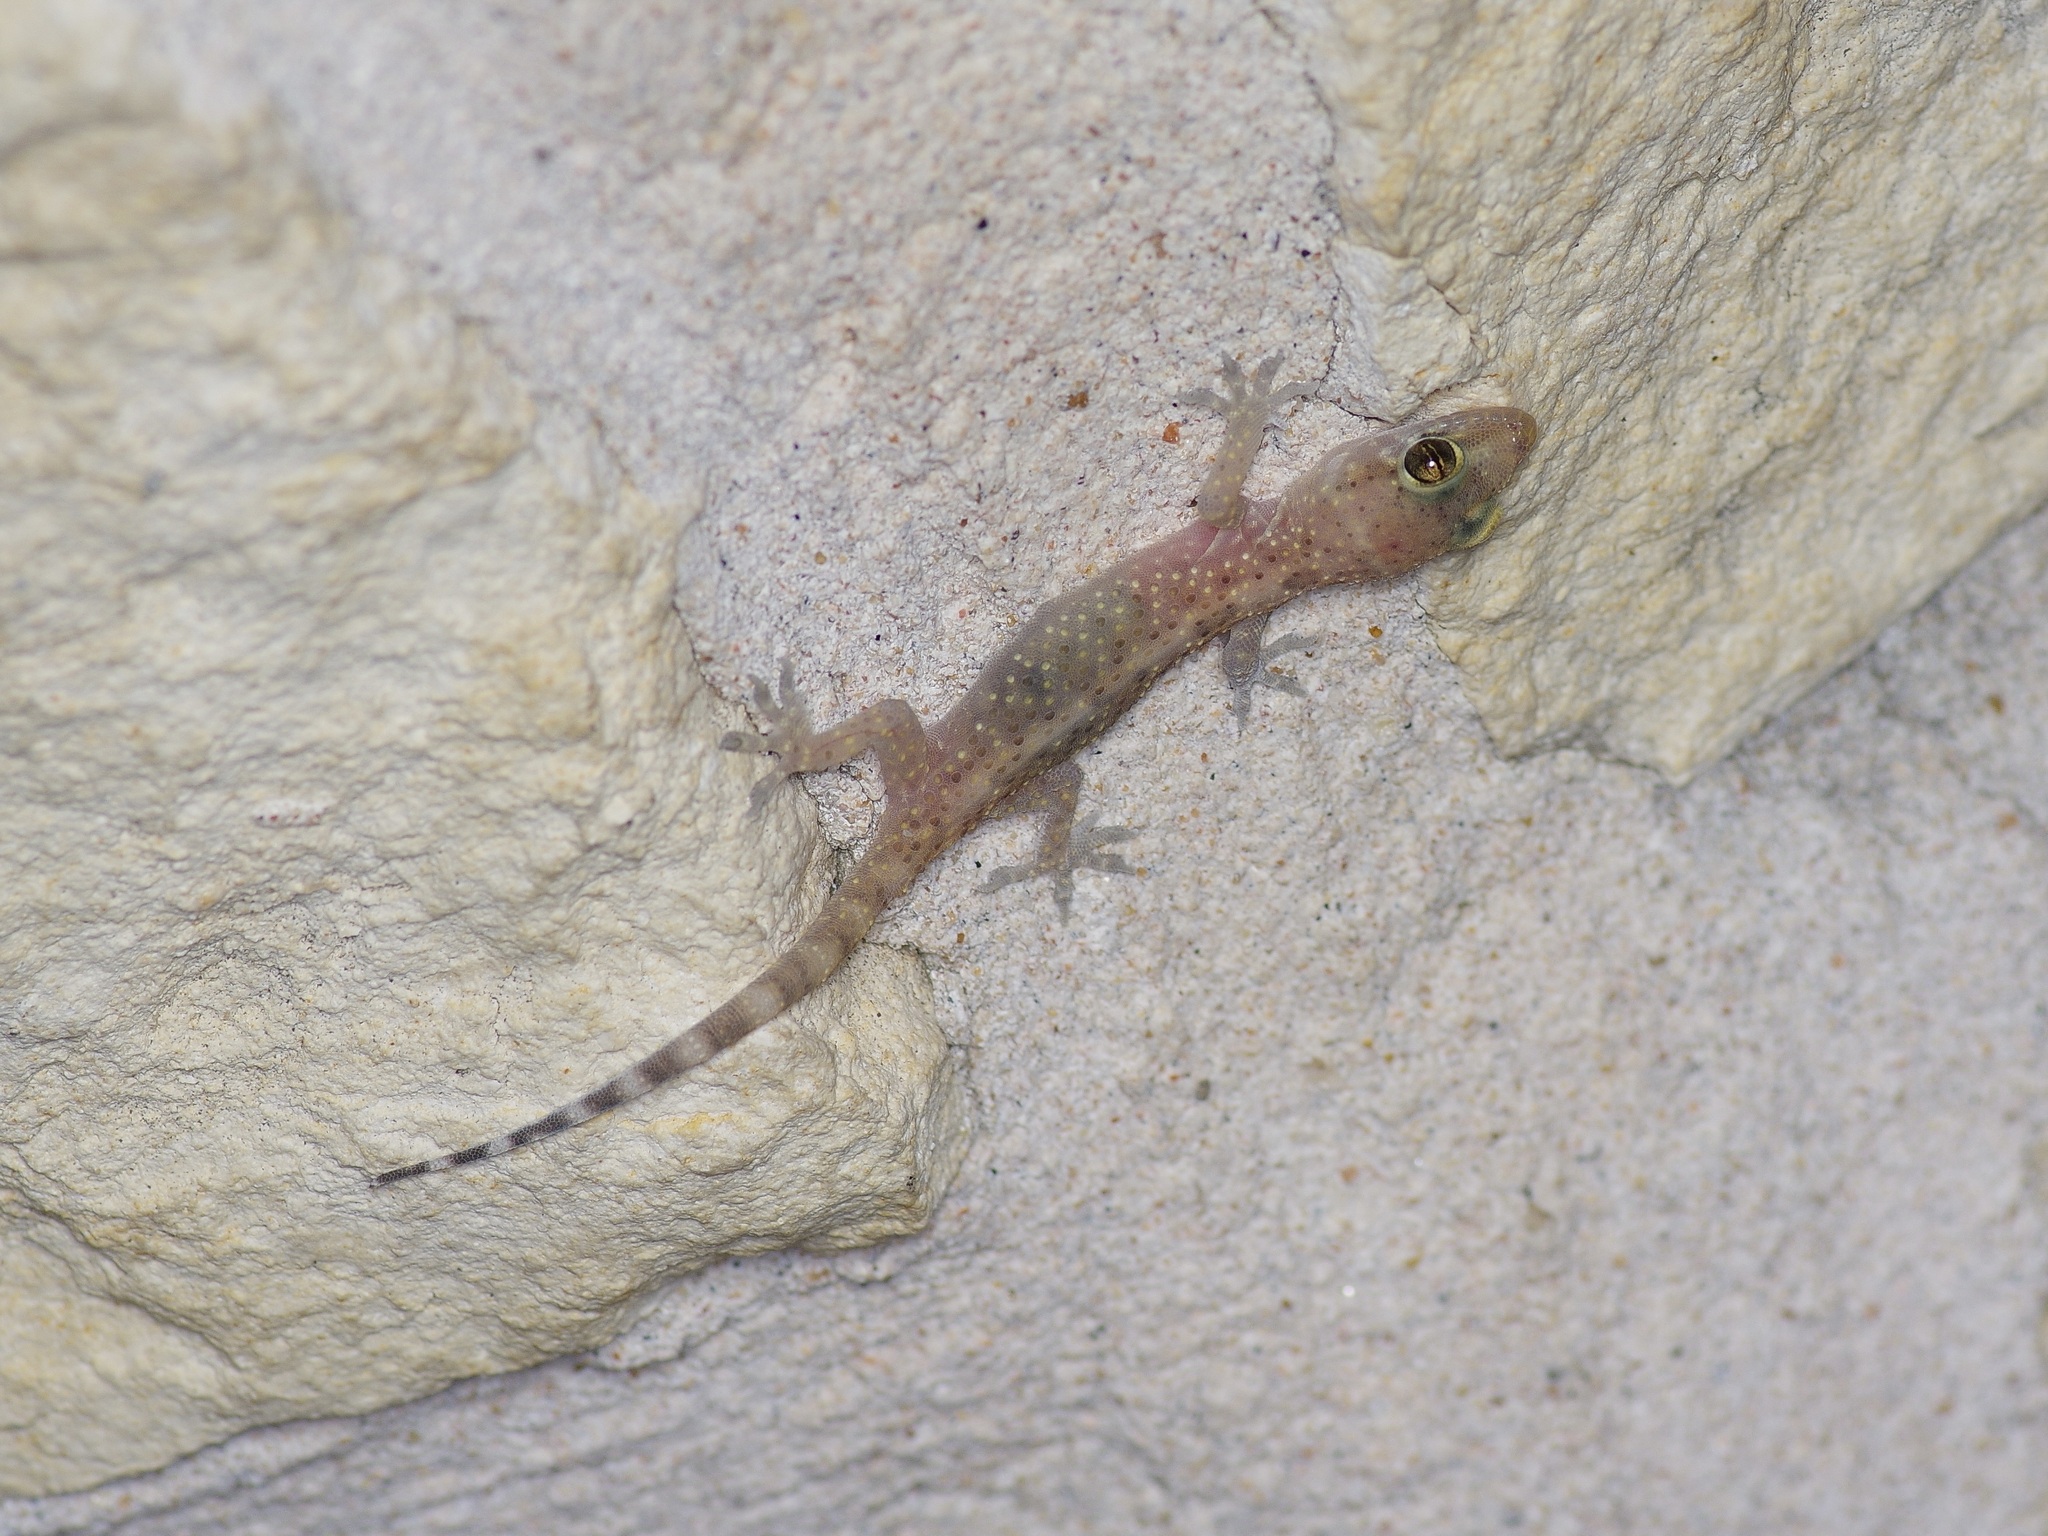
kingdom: Animalia
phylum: Chordata
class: Squamata
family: Gekkonidae
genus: Hemidactylus
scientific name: Hemidactylus turcicus
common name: Turkish gecko
